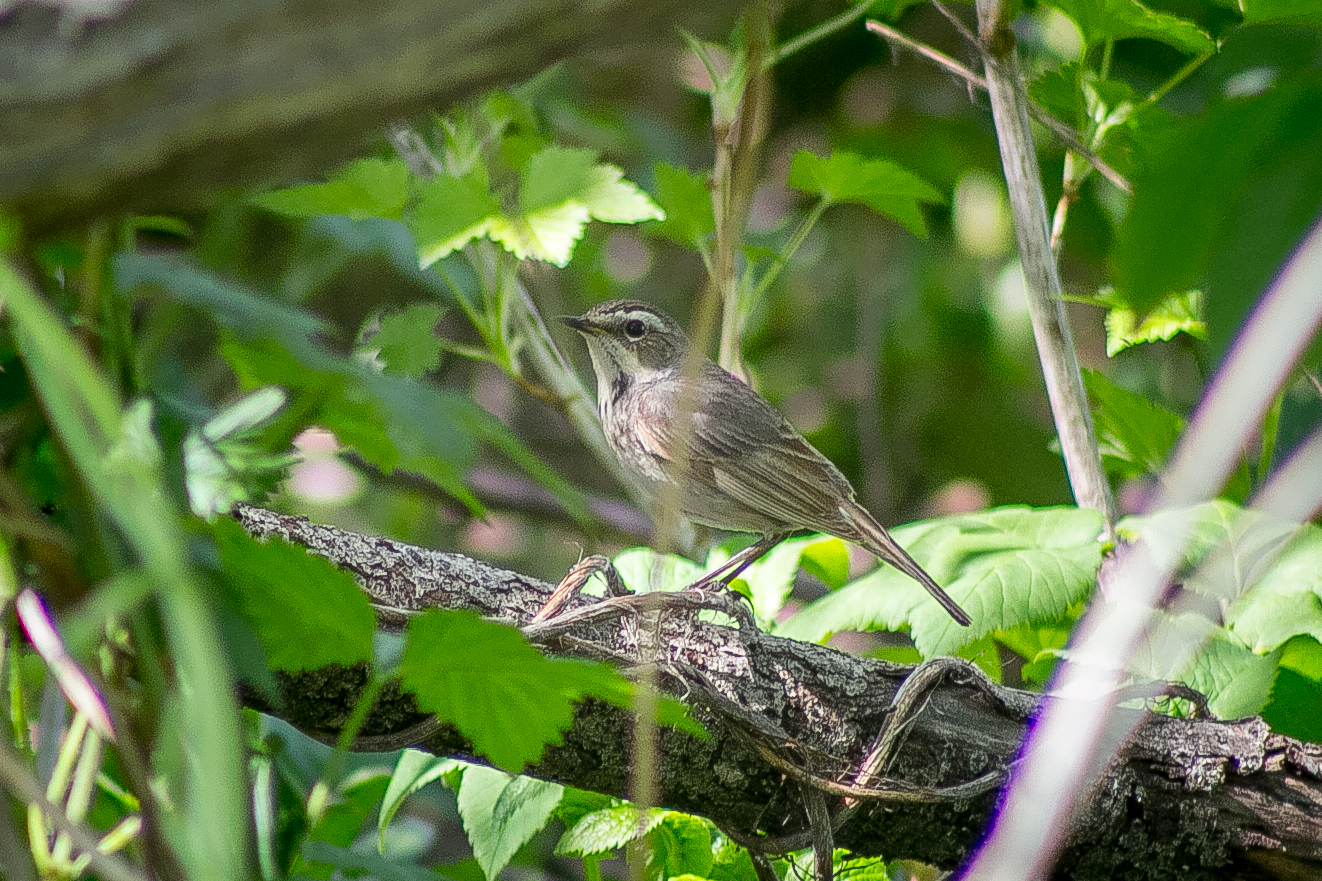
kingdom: Animalia
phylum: Chordata
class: Aves
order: Passeriformes
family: Muscicapidae
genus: Luscinia
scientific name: Luscinia svecica
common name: Bluethroat
